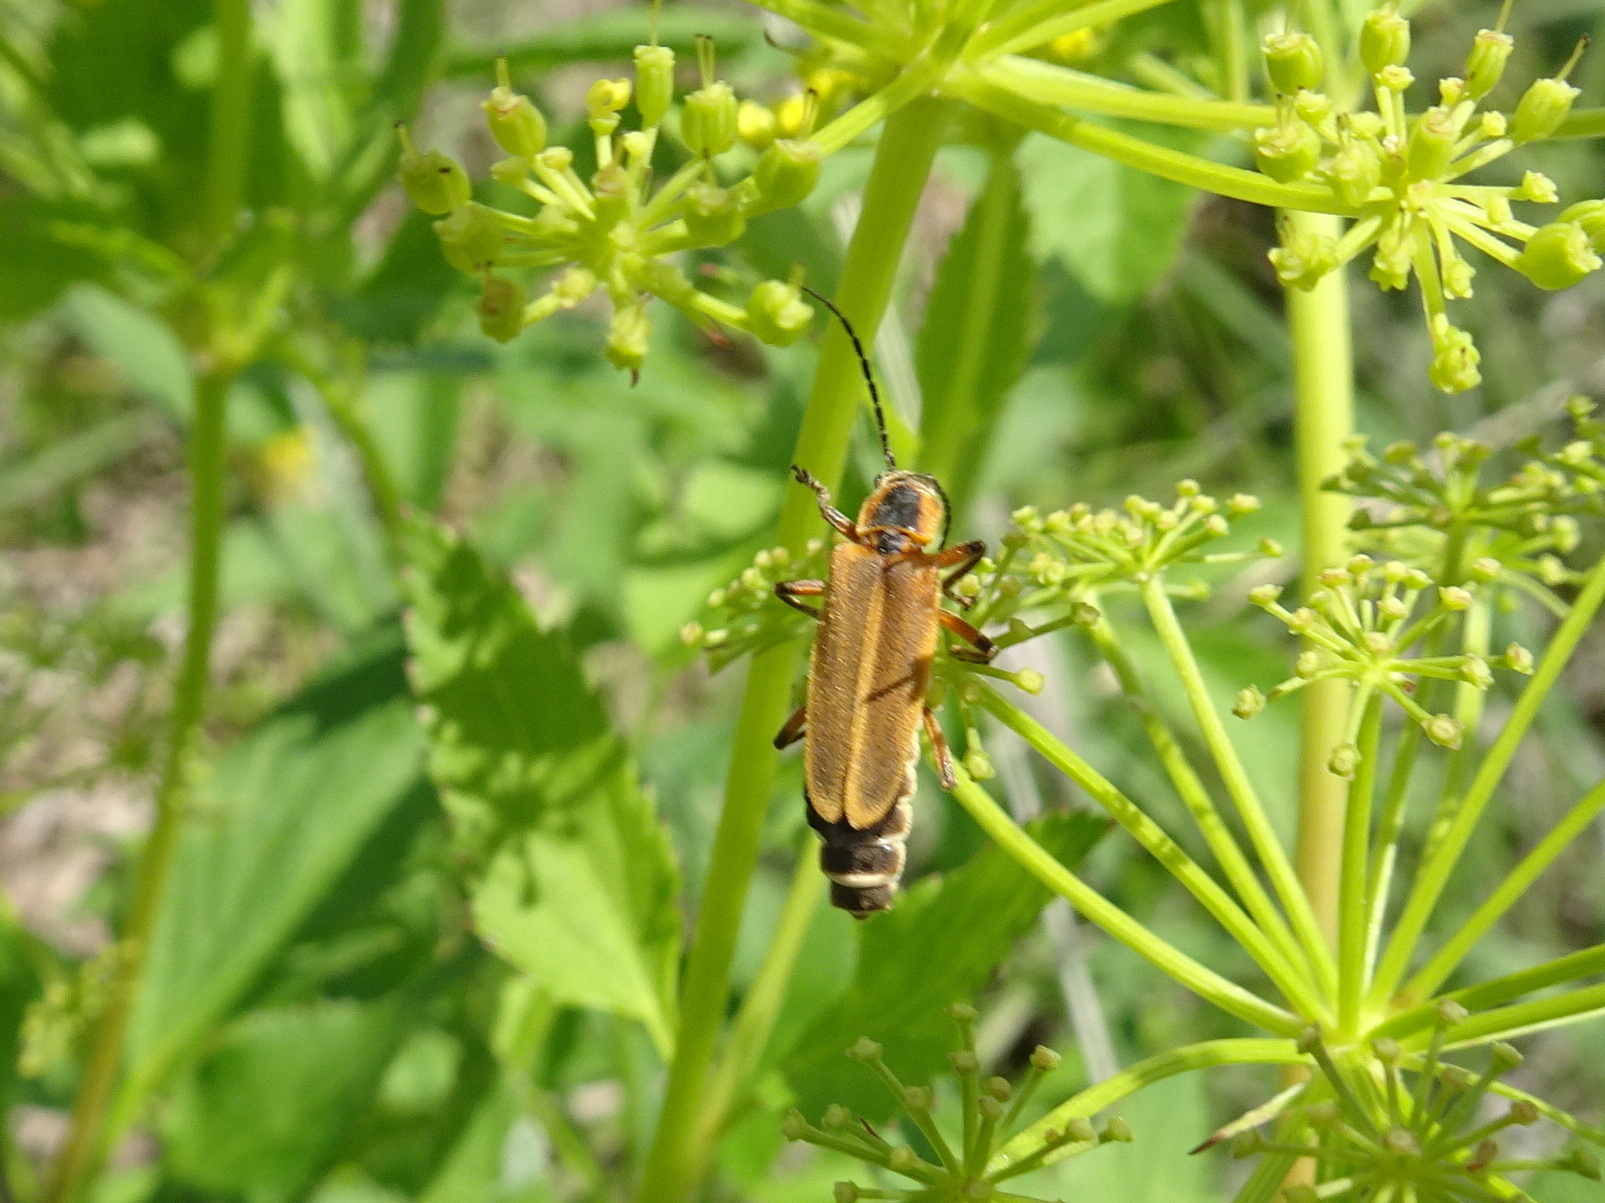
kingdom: Animalia
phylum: Arthropoda
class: Insecta
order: Coleoptera
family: Cantharidae
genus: Chauliognathus
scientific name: Chauliognathus marginatus
